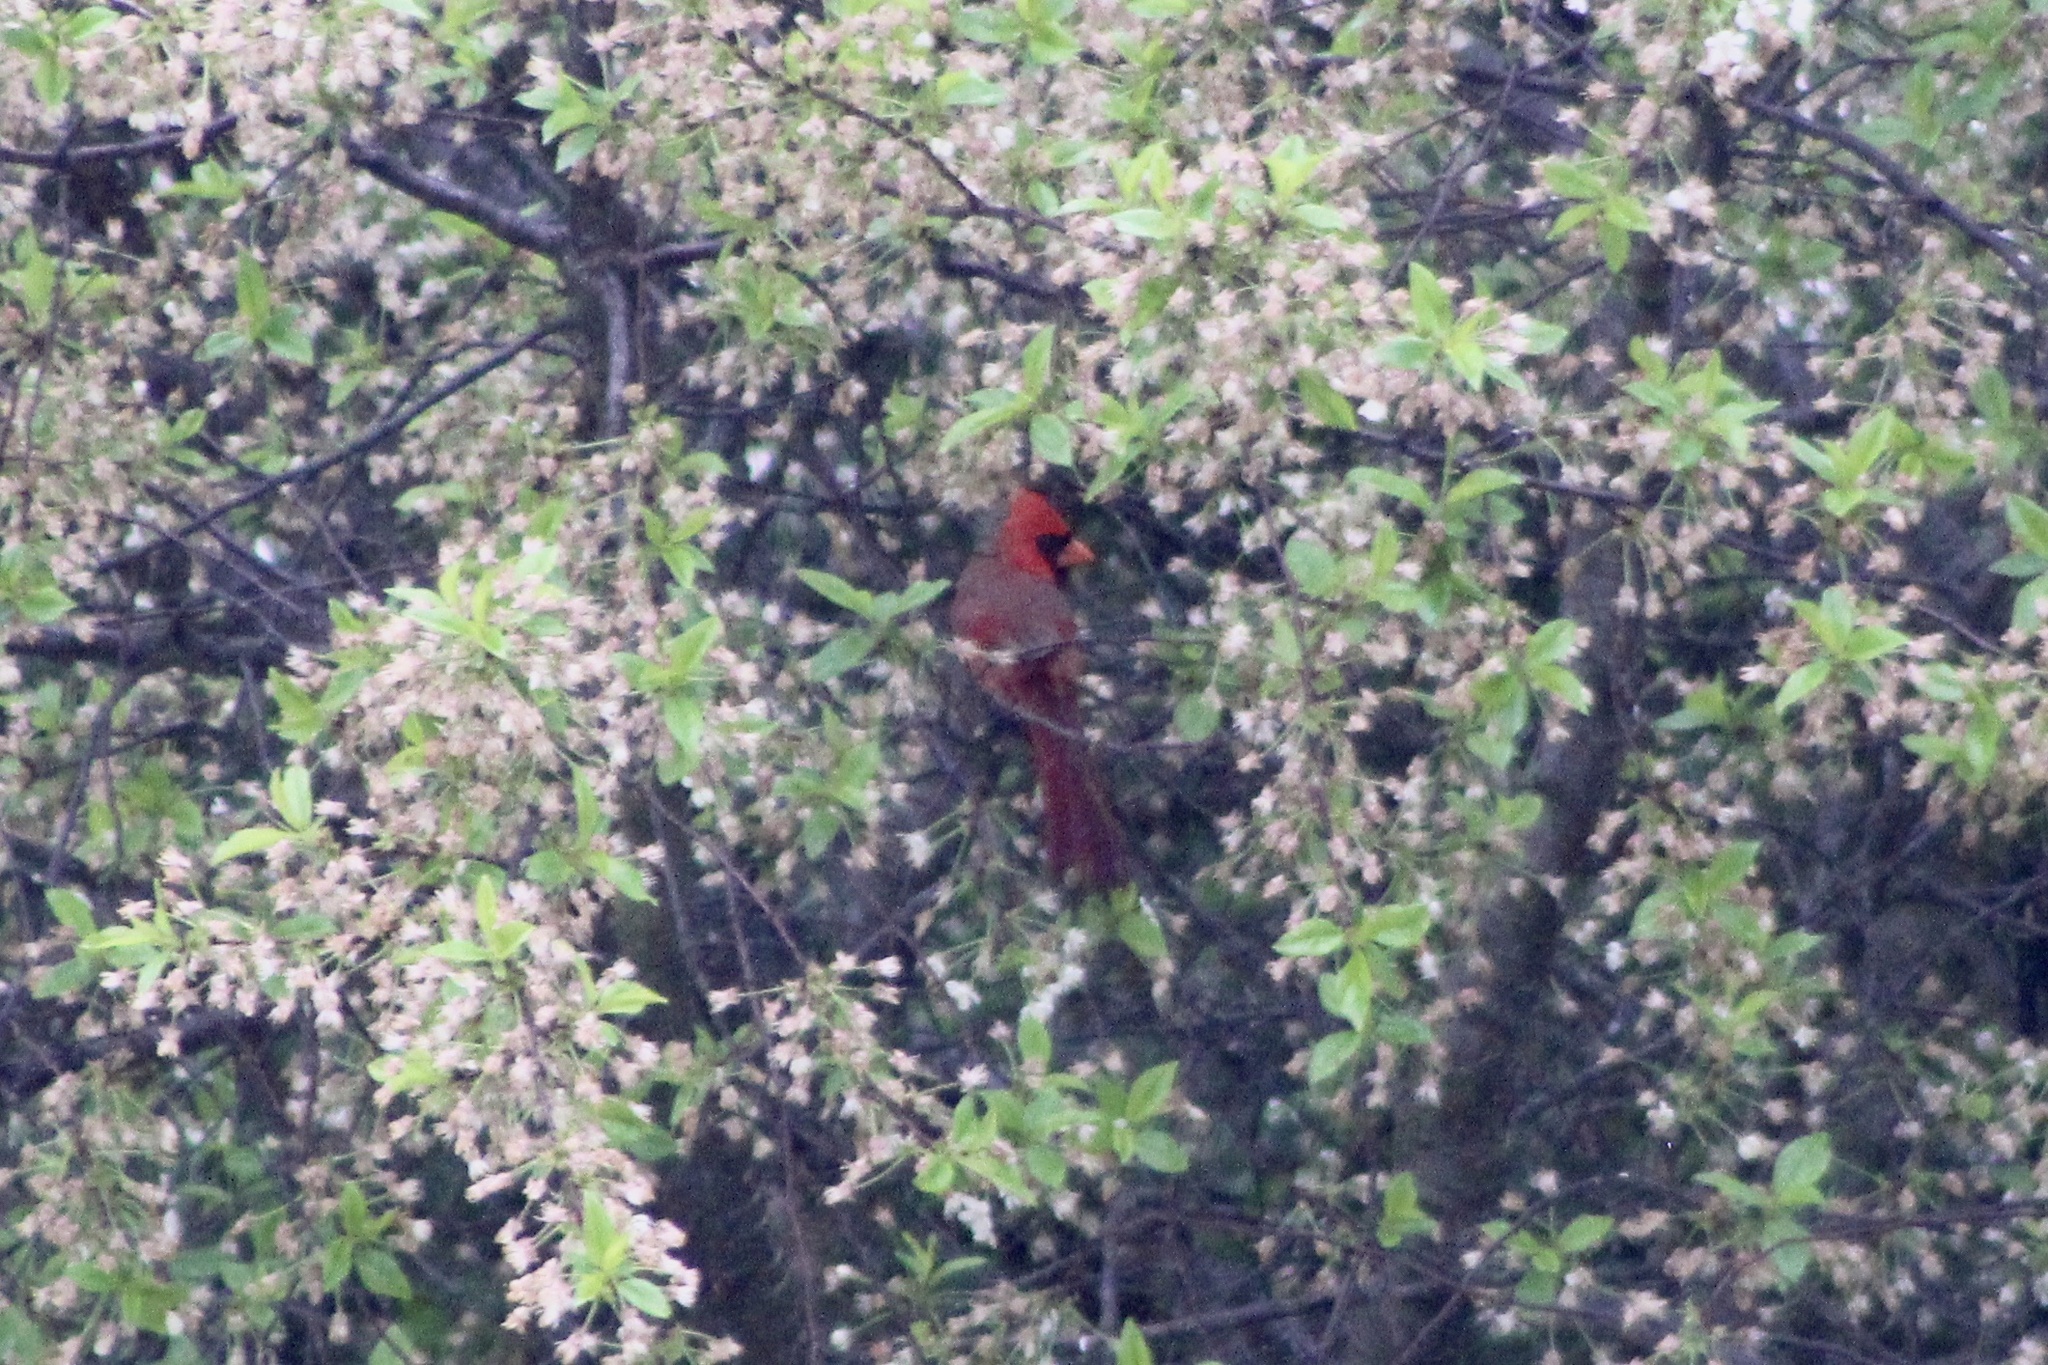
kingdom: Animalia
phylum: Chordata
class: Aves
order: Passeriformes
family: Cardinalidae
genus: Cardinalis
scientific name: Cardinalis cardinalis
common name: Northern cardinal
